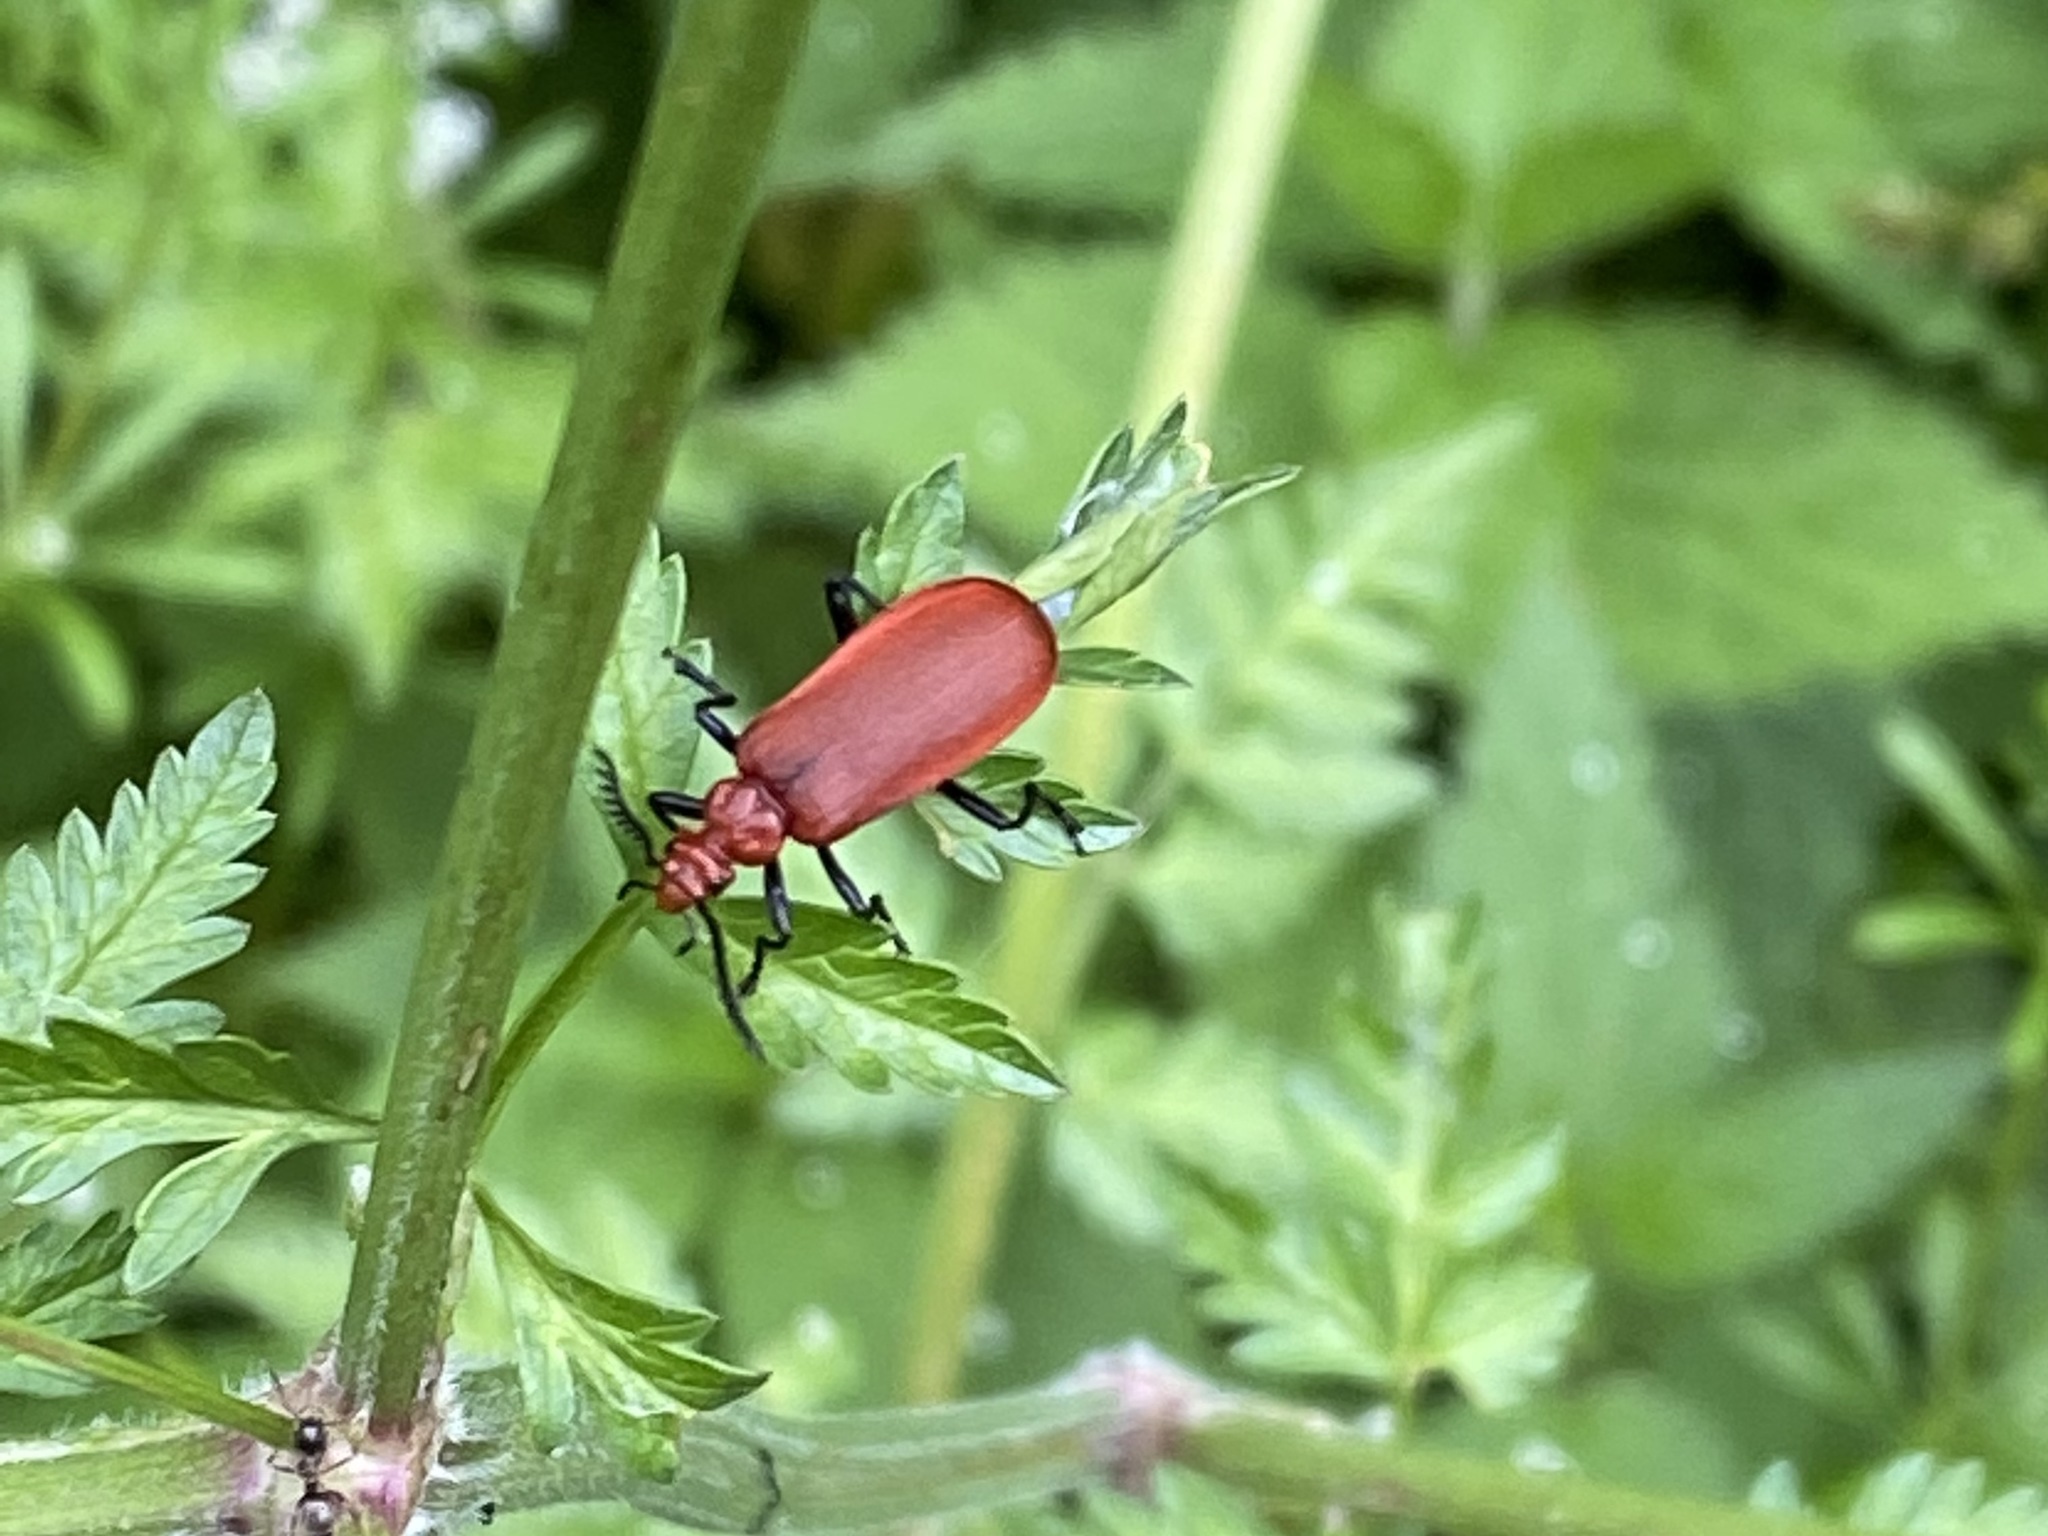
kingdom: Animalia
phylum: Arthropoda
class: Insecta
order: Coleoptera
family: Pyrochroidae
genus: Pyrochroa
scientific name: Pyrochroa serraticornis
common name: Red-headed cardinal beetle
